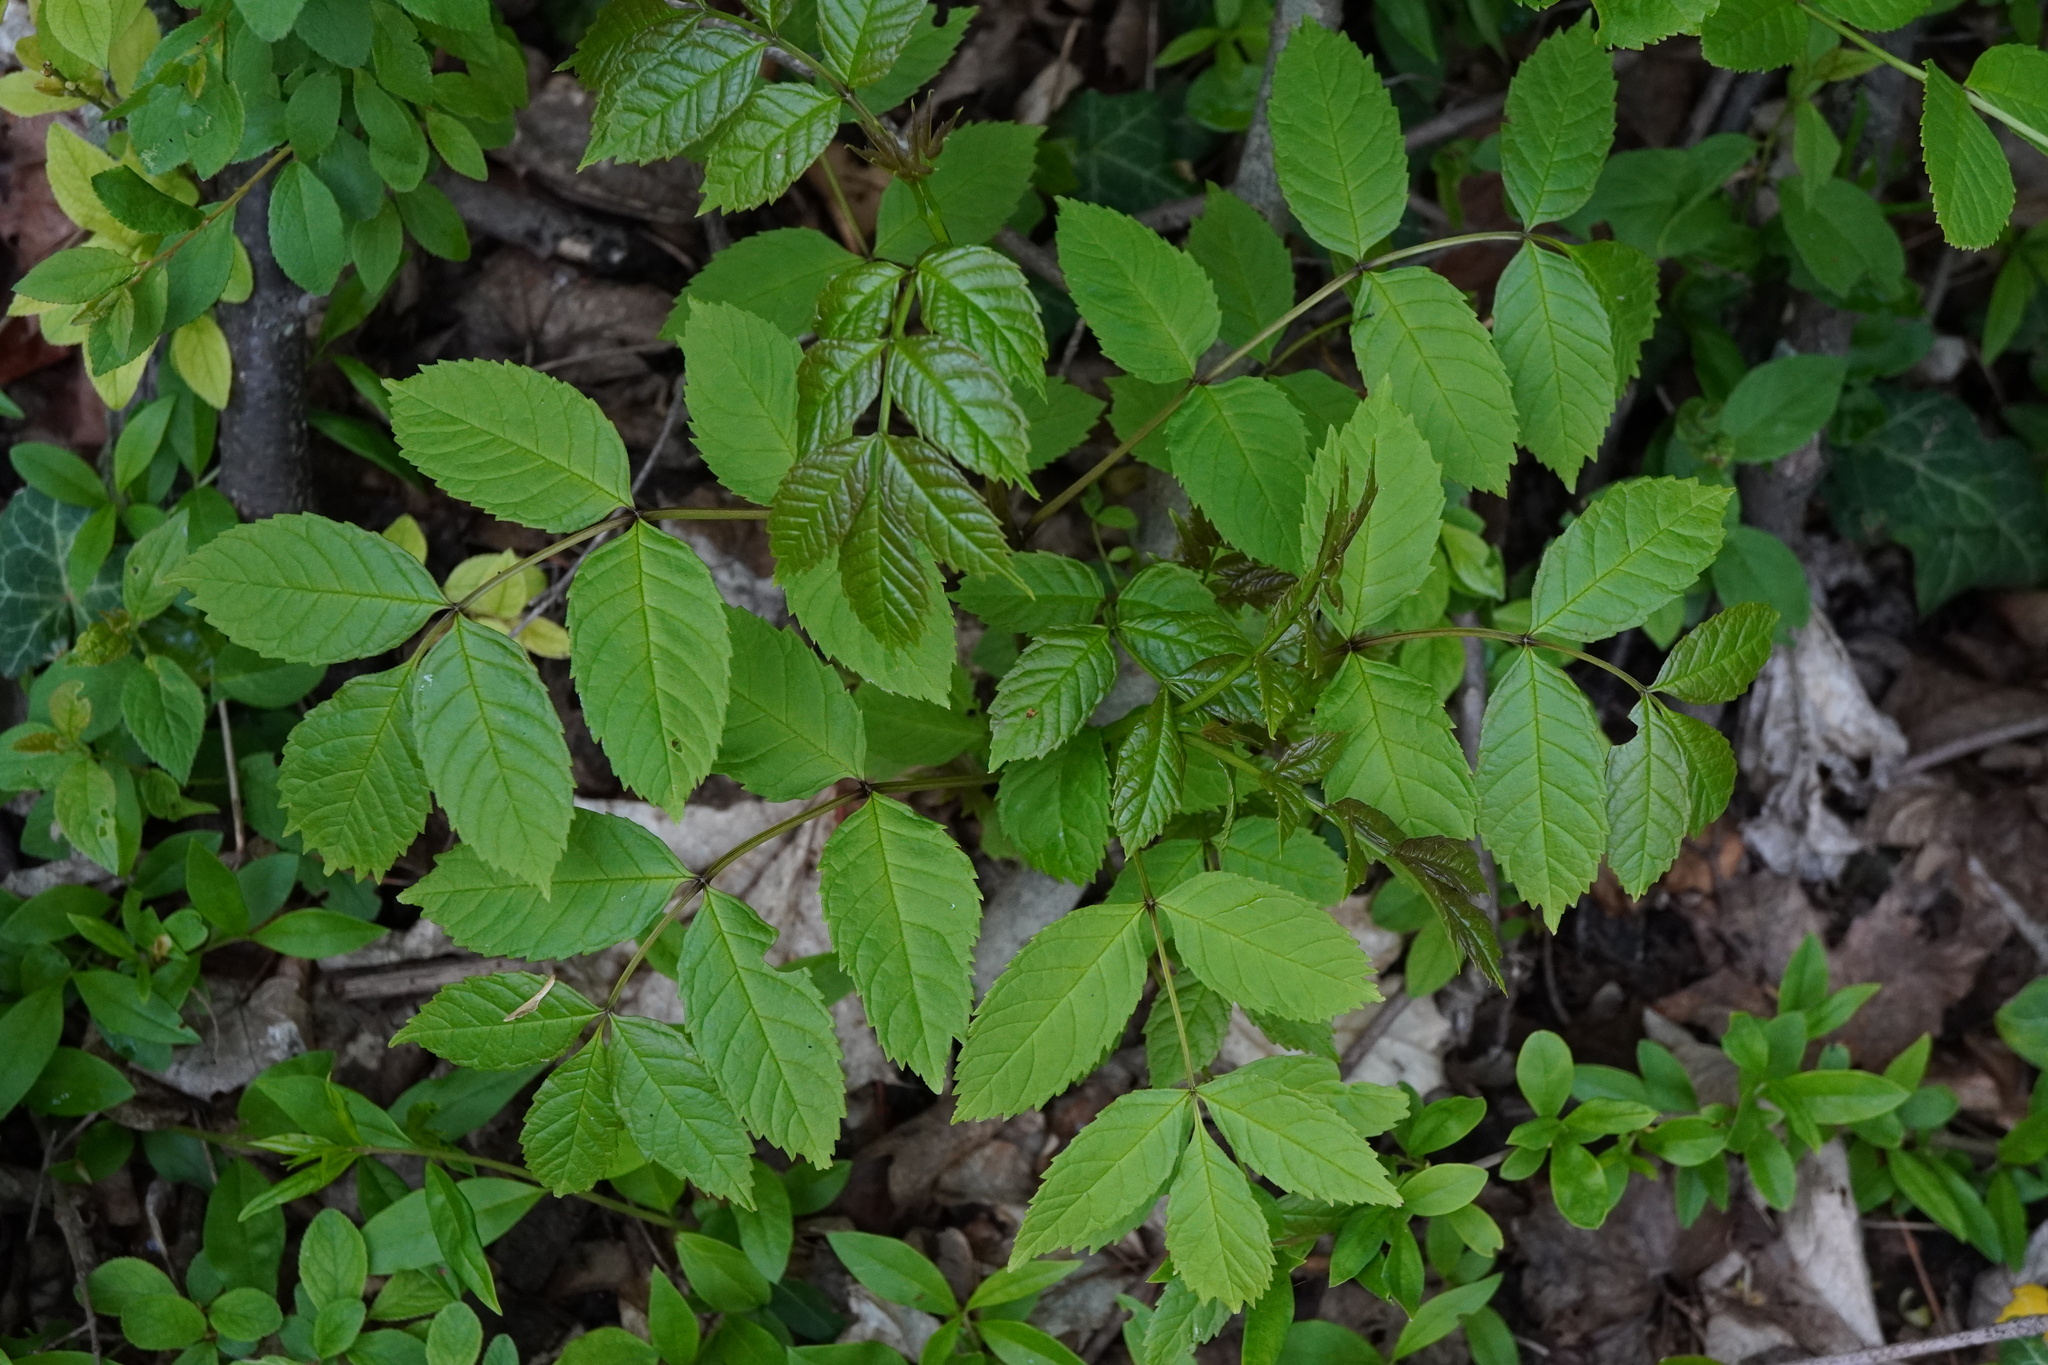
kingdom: Plantae
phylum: Tracheophyta
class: Magnoliopsida
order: Lamiales
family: Oleaceae
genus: Fraxinus
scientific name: Fraxinus excelsior
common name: European ash
